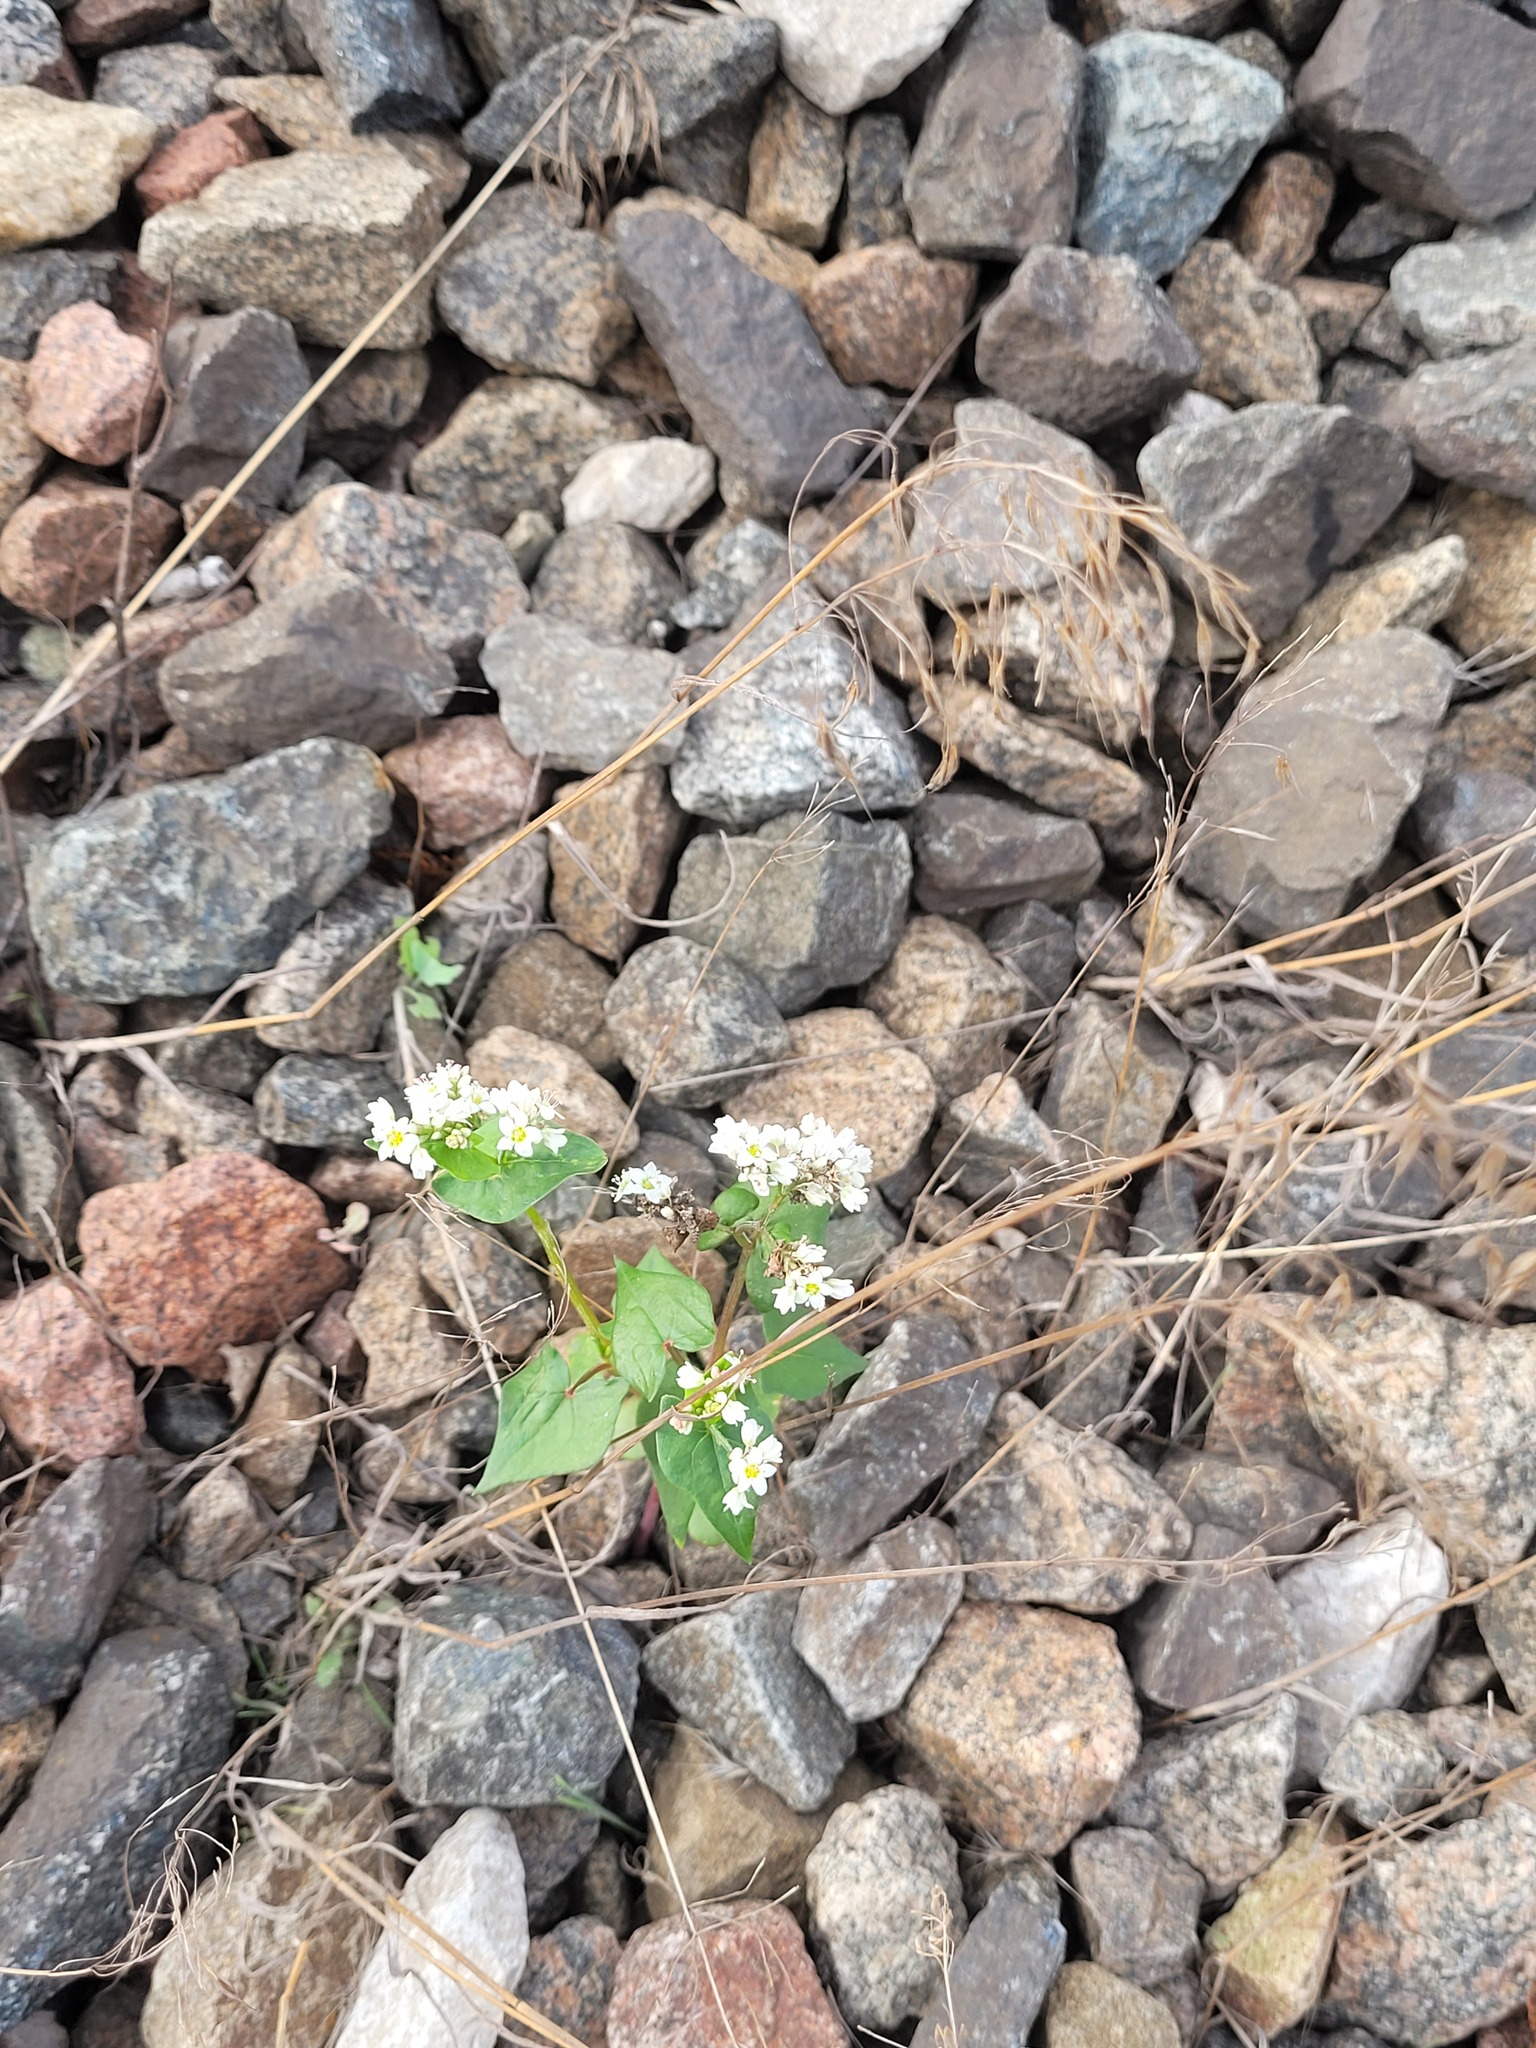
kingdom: Plantae
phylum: Tracheophyta
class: Magnoliopsida
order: Caryophyllales
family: Polygonaceae
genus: Fagopyrum
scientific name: Fagopyrum esculentum
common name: Buckwheat
